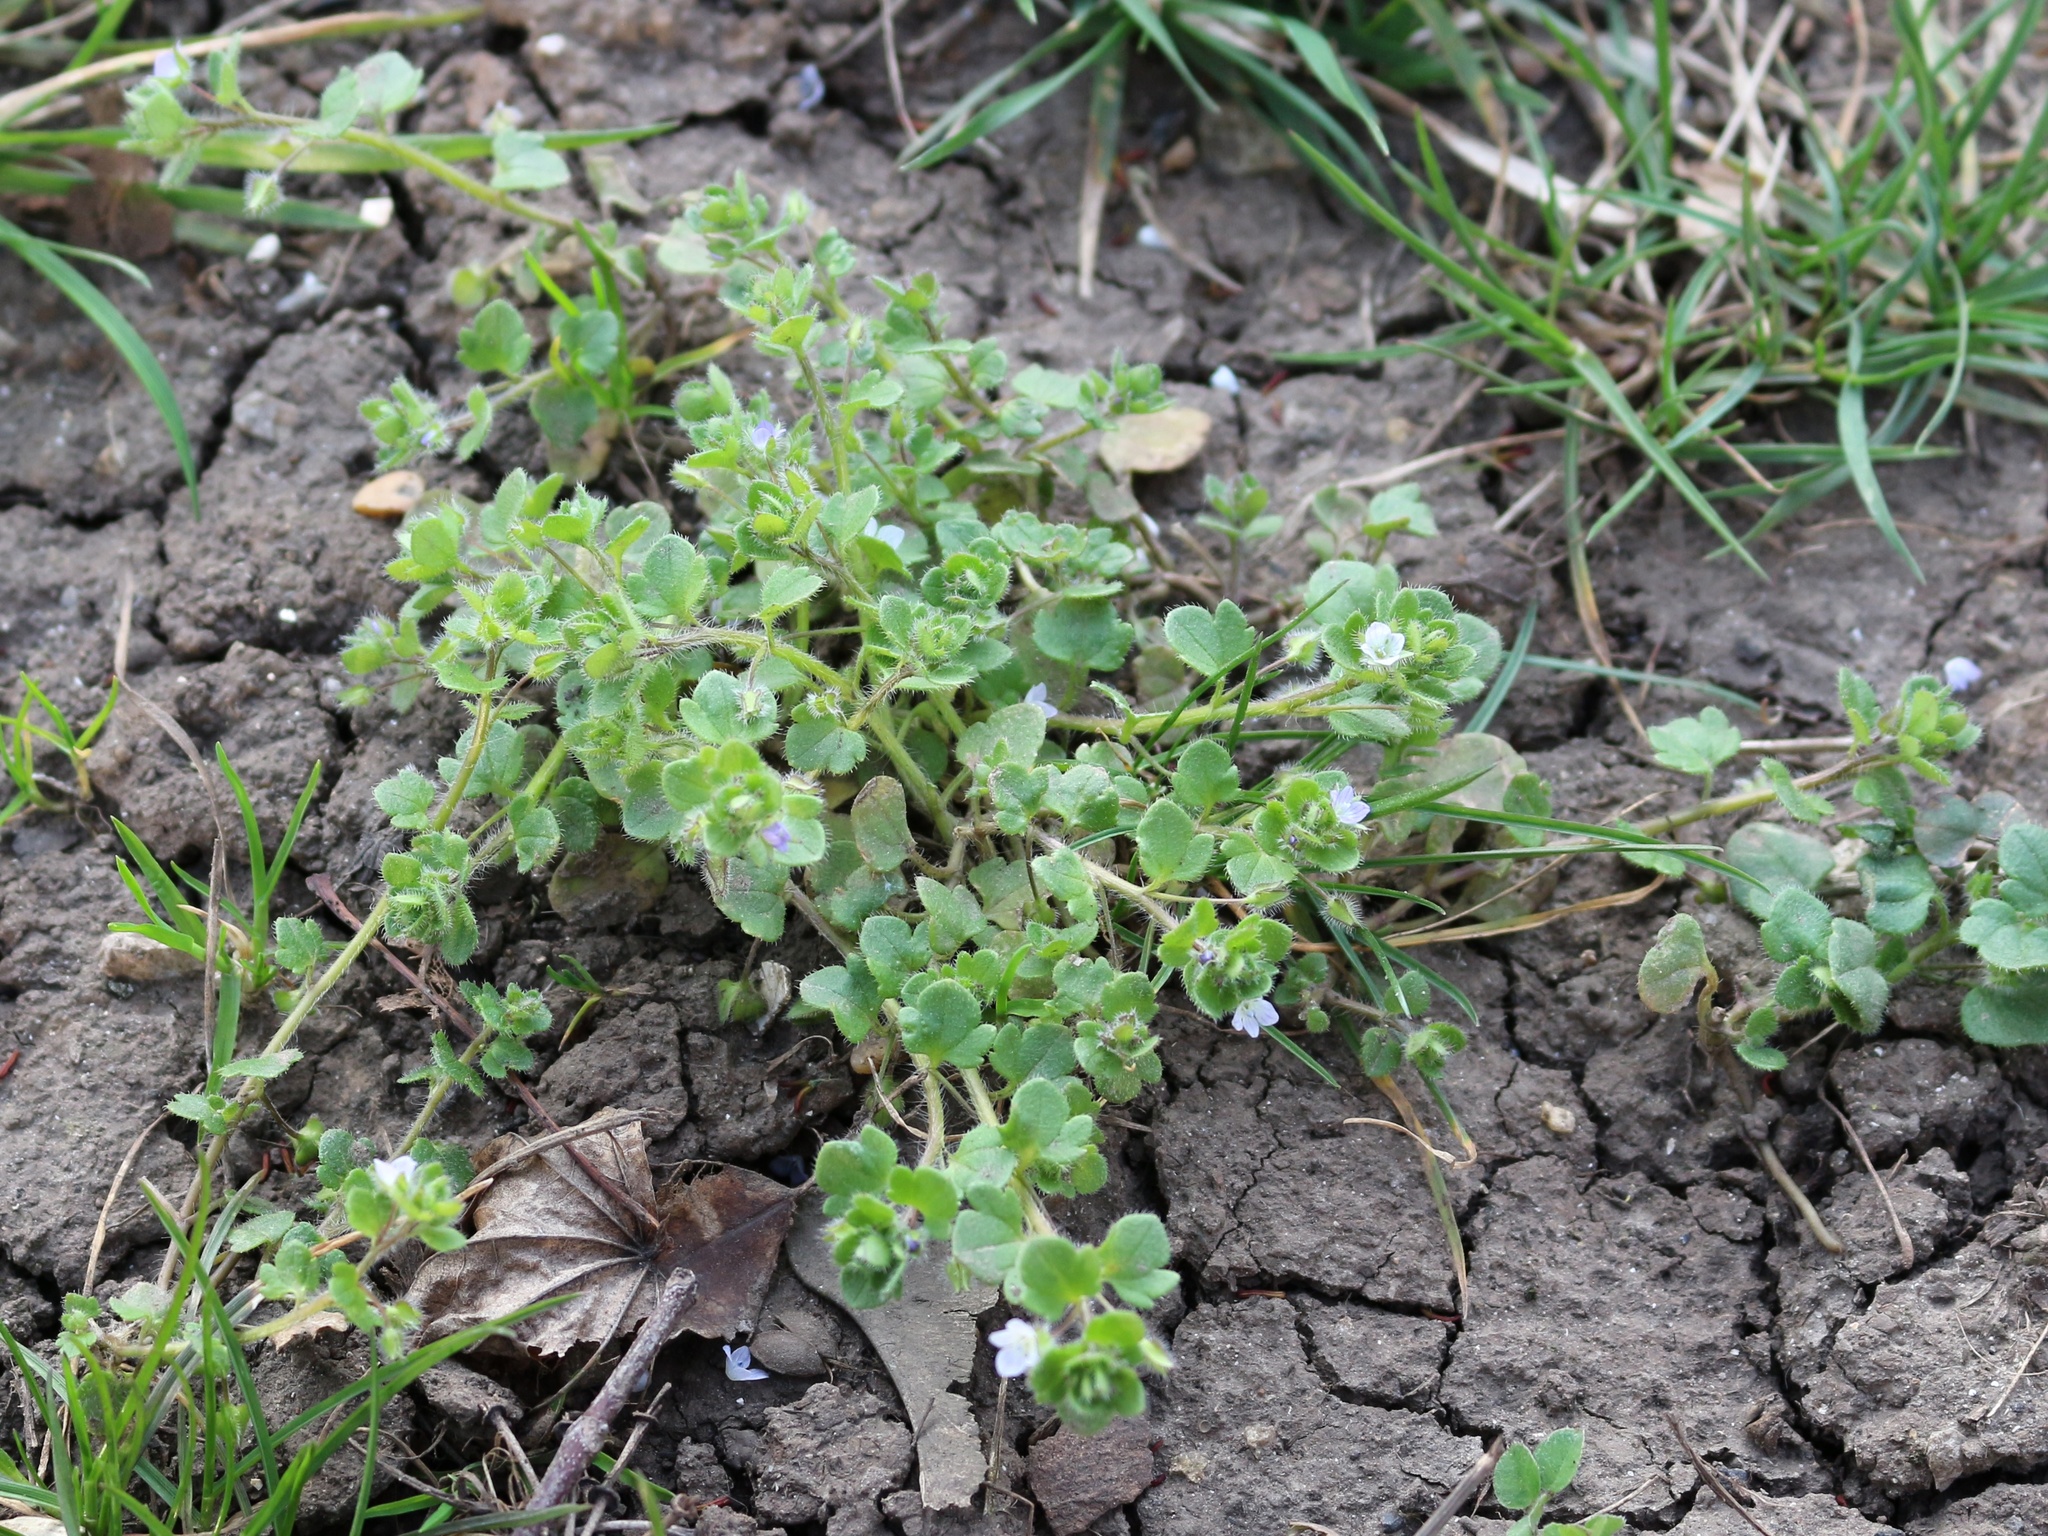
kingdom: Plantae
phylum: Tracheophyta
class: Magnoliopsida
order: Lamiales
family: Plantaginaceae
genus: Veronica
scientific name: Veronica sublobata
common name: False ivy-leaved speedwell
